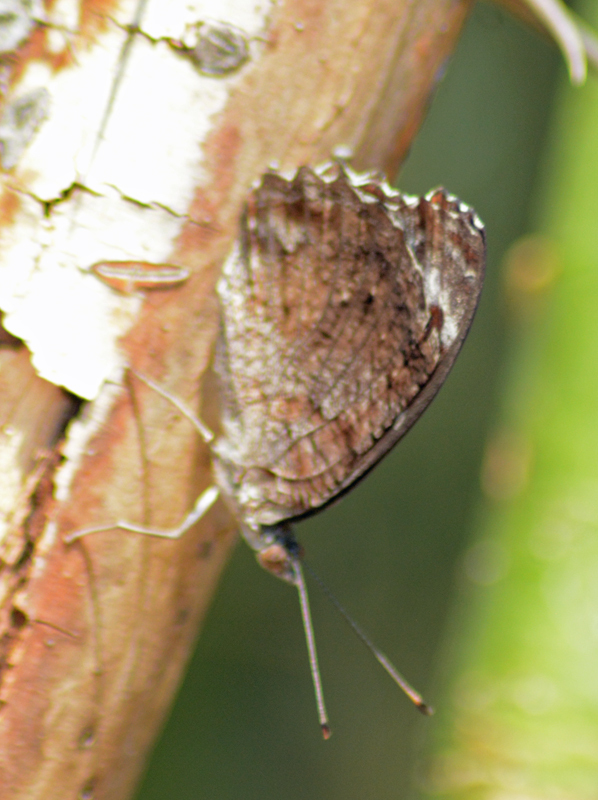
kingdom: Animalia
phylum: Arthropoda
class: Insecta
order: Lepidoptera
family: Nymphalidae
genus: Myscelia
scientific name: Myscelia cyananthe
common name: Blackened bluewing
